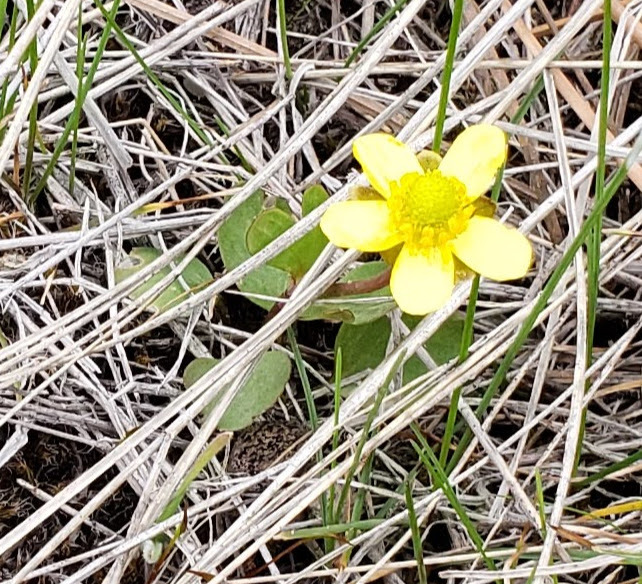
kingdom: Plantae
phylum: Tracheophyta
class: Magnoliopsida
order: Ranunculales
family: Ranunculaceae
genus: Ranunculus
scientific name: Ranunculus glaberrimus
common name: Sagebrush buttercup
